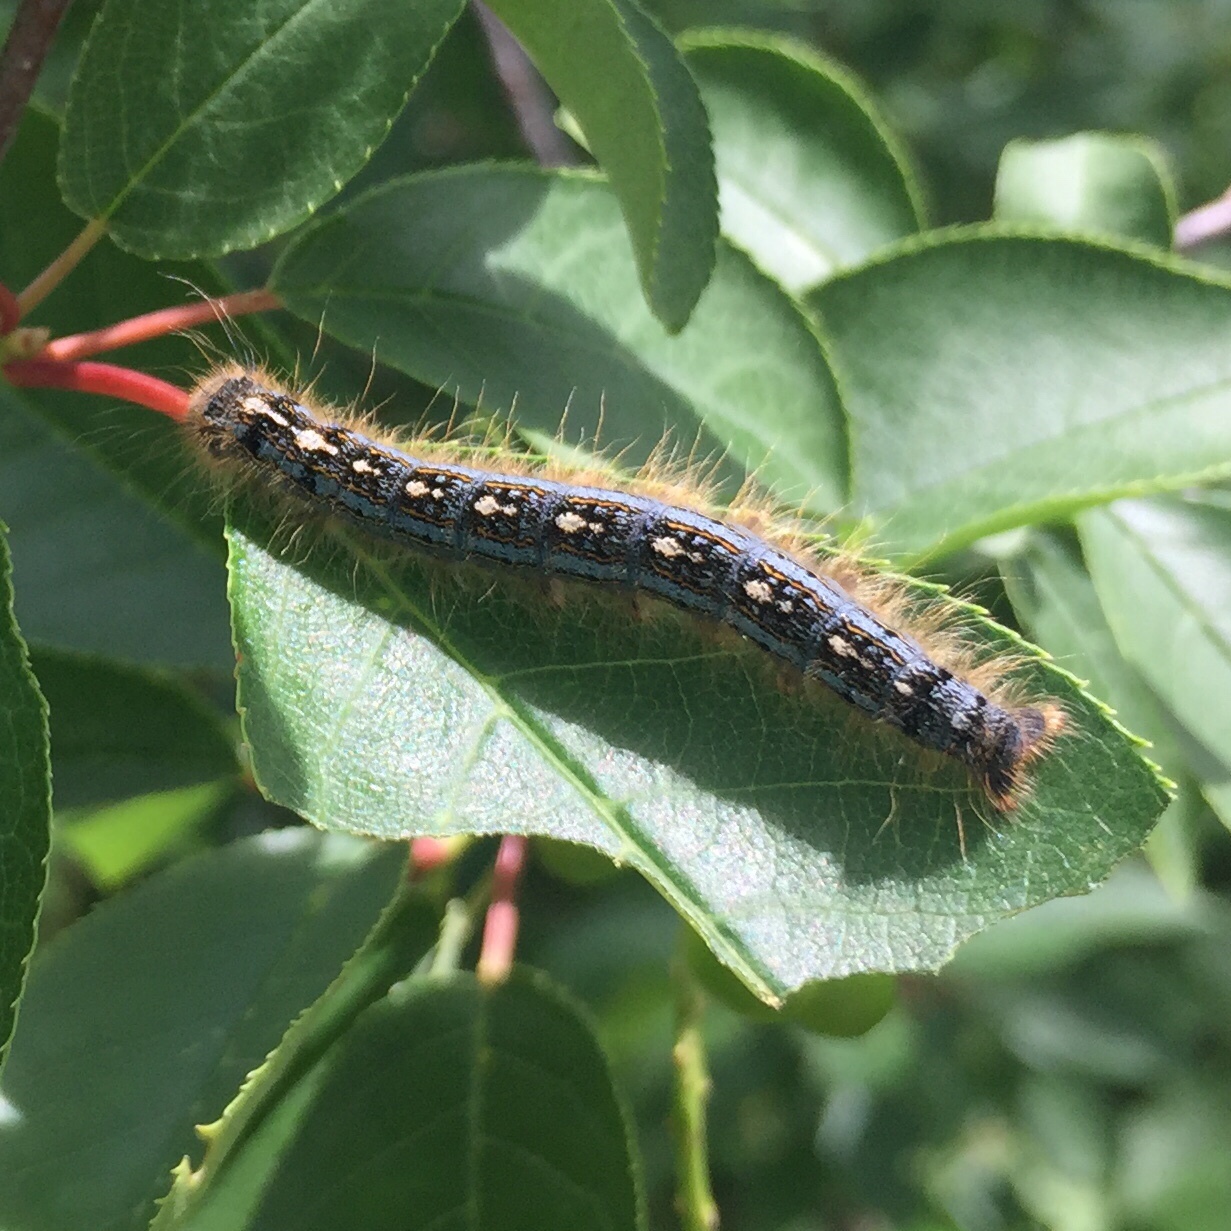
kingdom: Animalia
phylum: Arthropoda
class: Insecta
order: Lepidoptera
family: Lasiocampidae
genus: Malacosoma
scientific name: Malacosoma disstria
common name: Forest tent caterpillar
